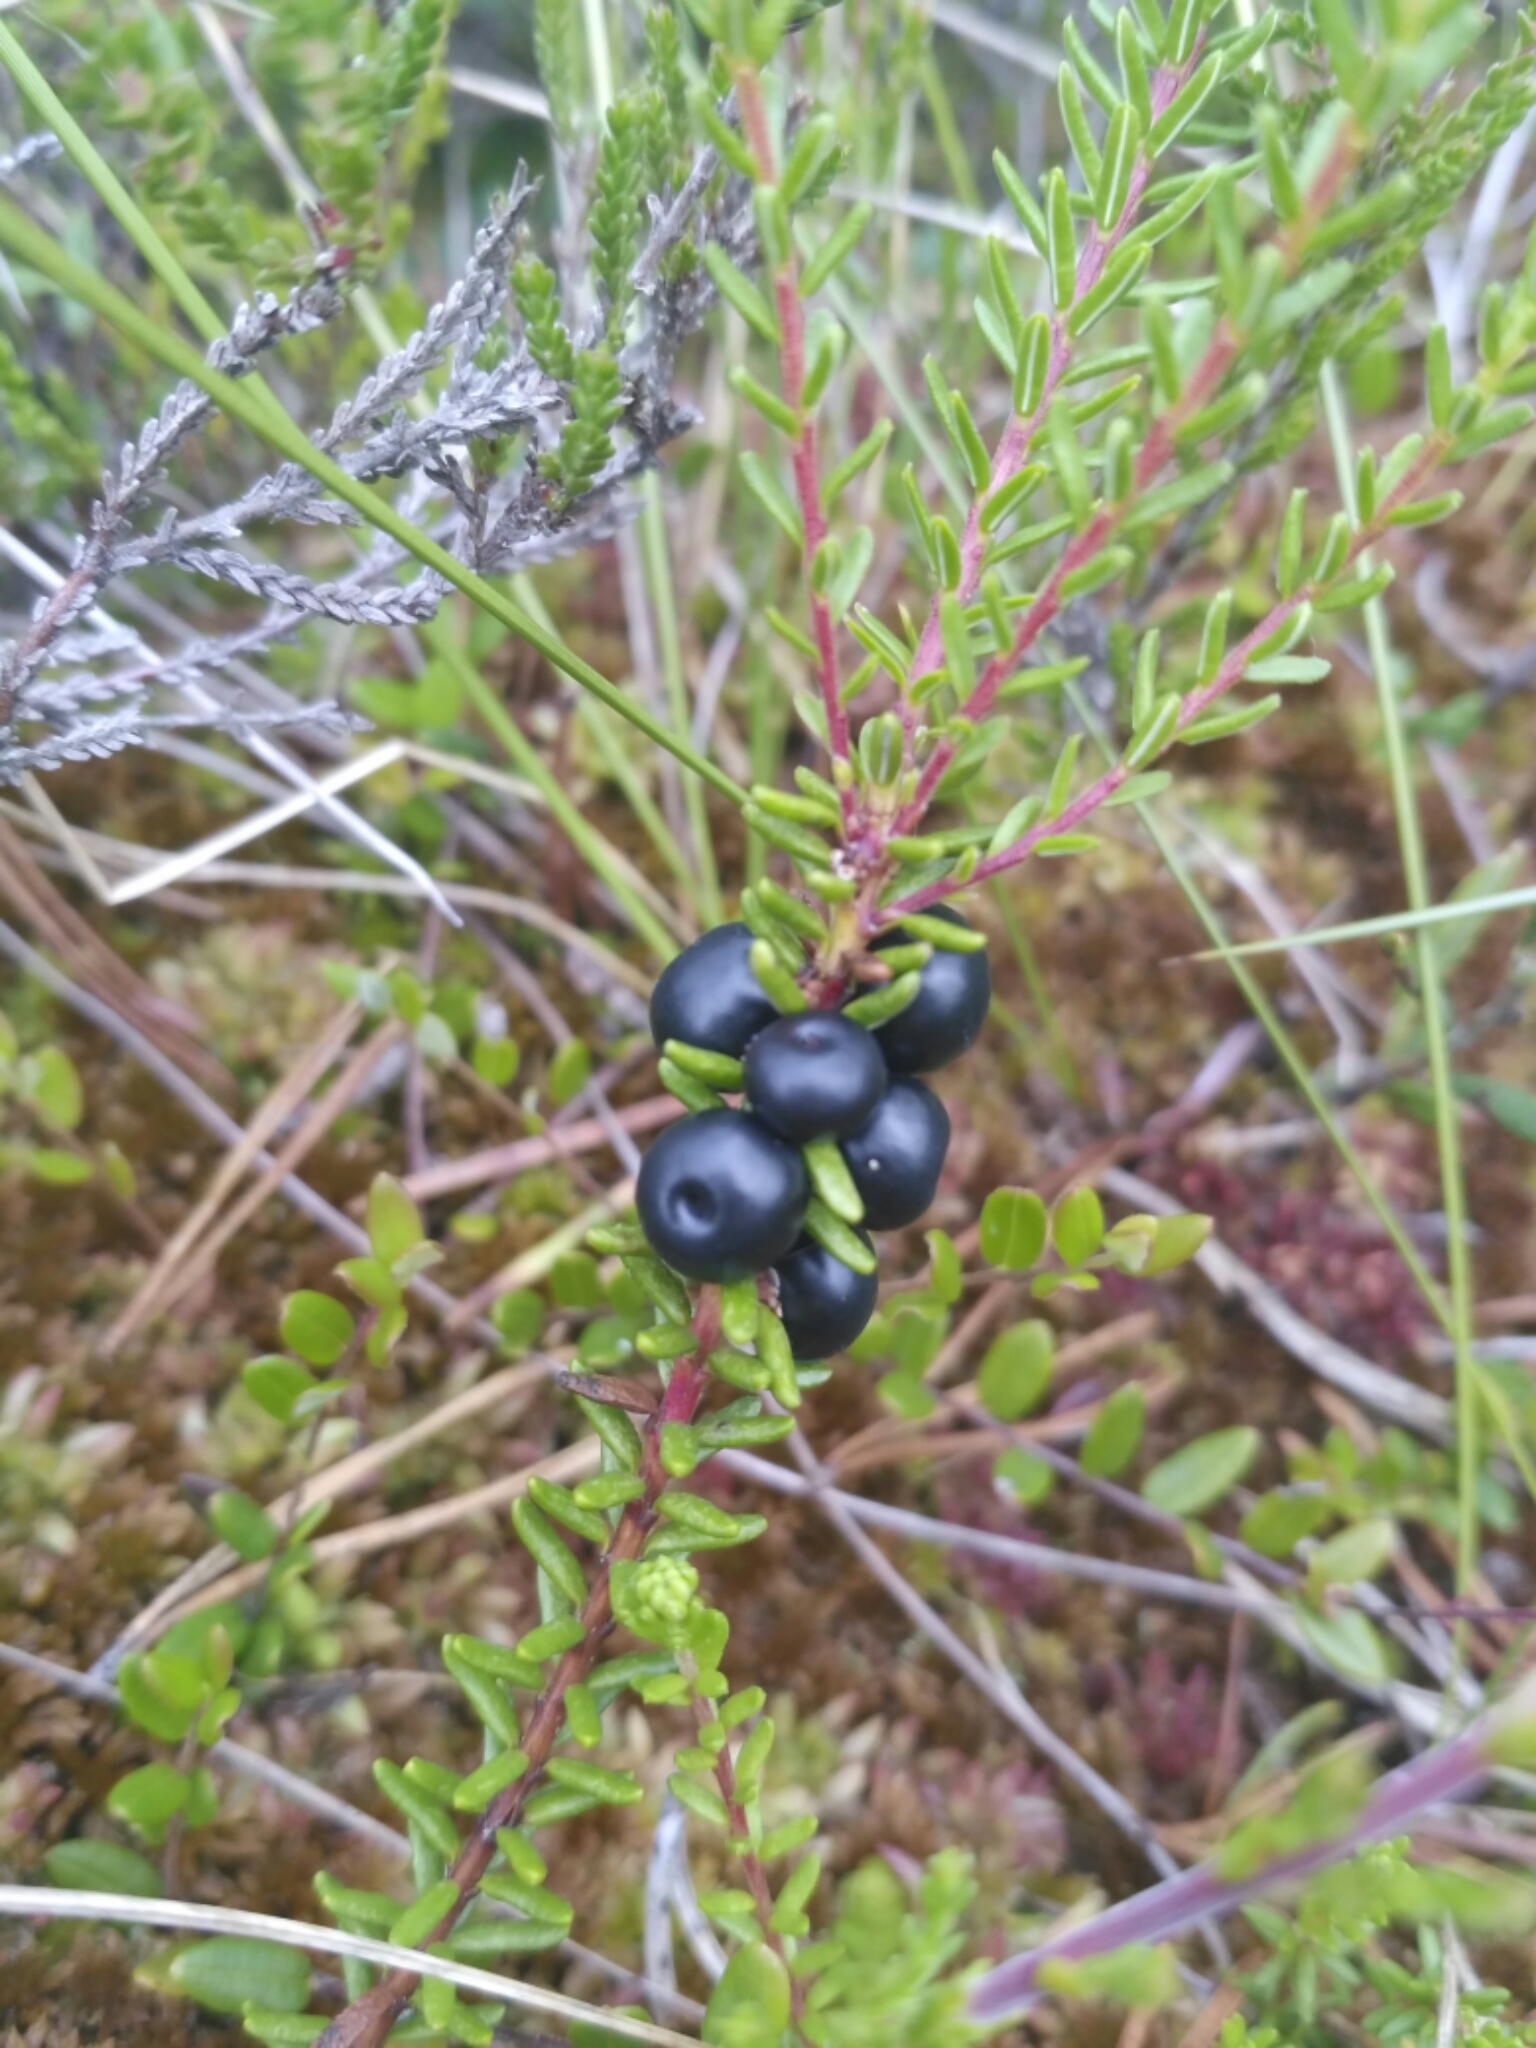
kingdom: Plantae
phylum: Tracheophyta
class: Magnoliopsida
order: Ericales
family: Ericaceae
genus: Empetrum
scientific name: Empetrum nigrum
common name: Black crowberry
